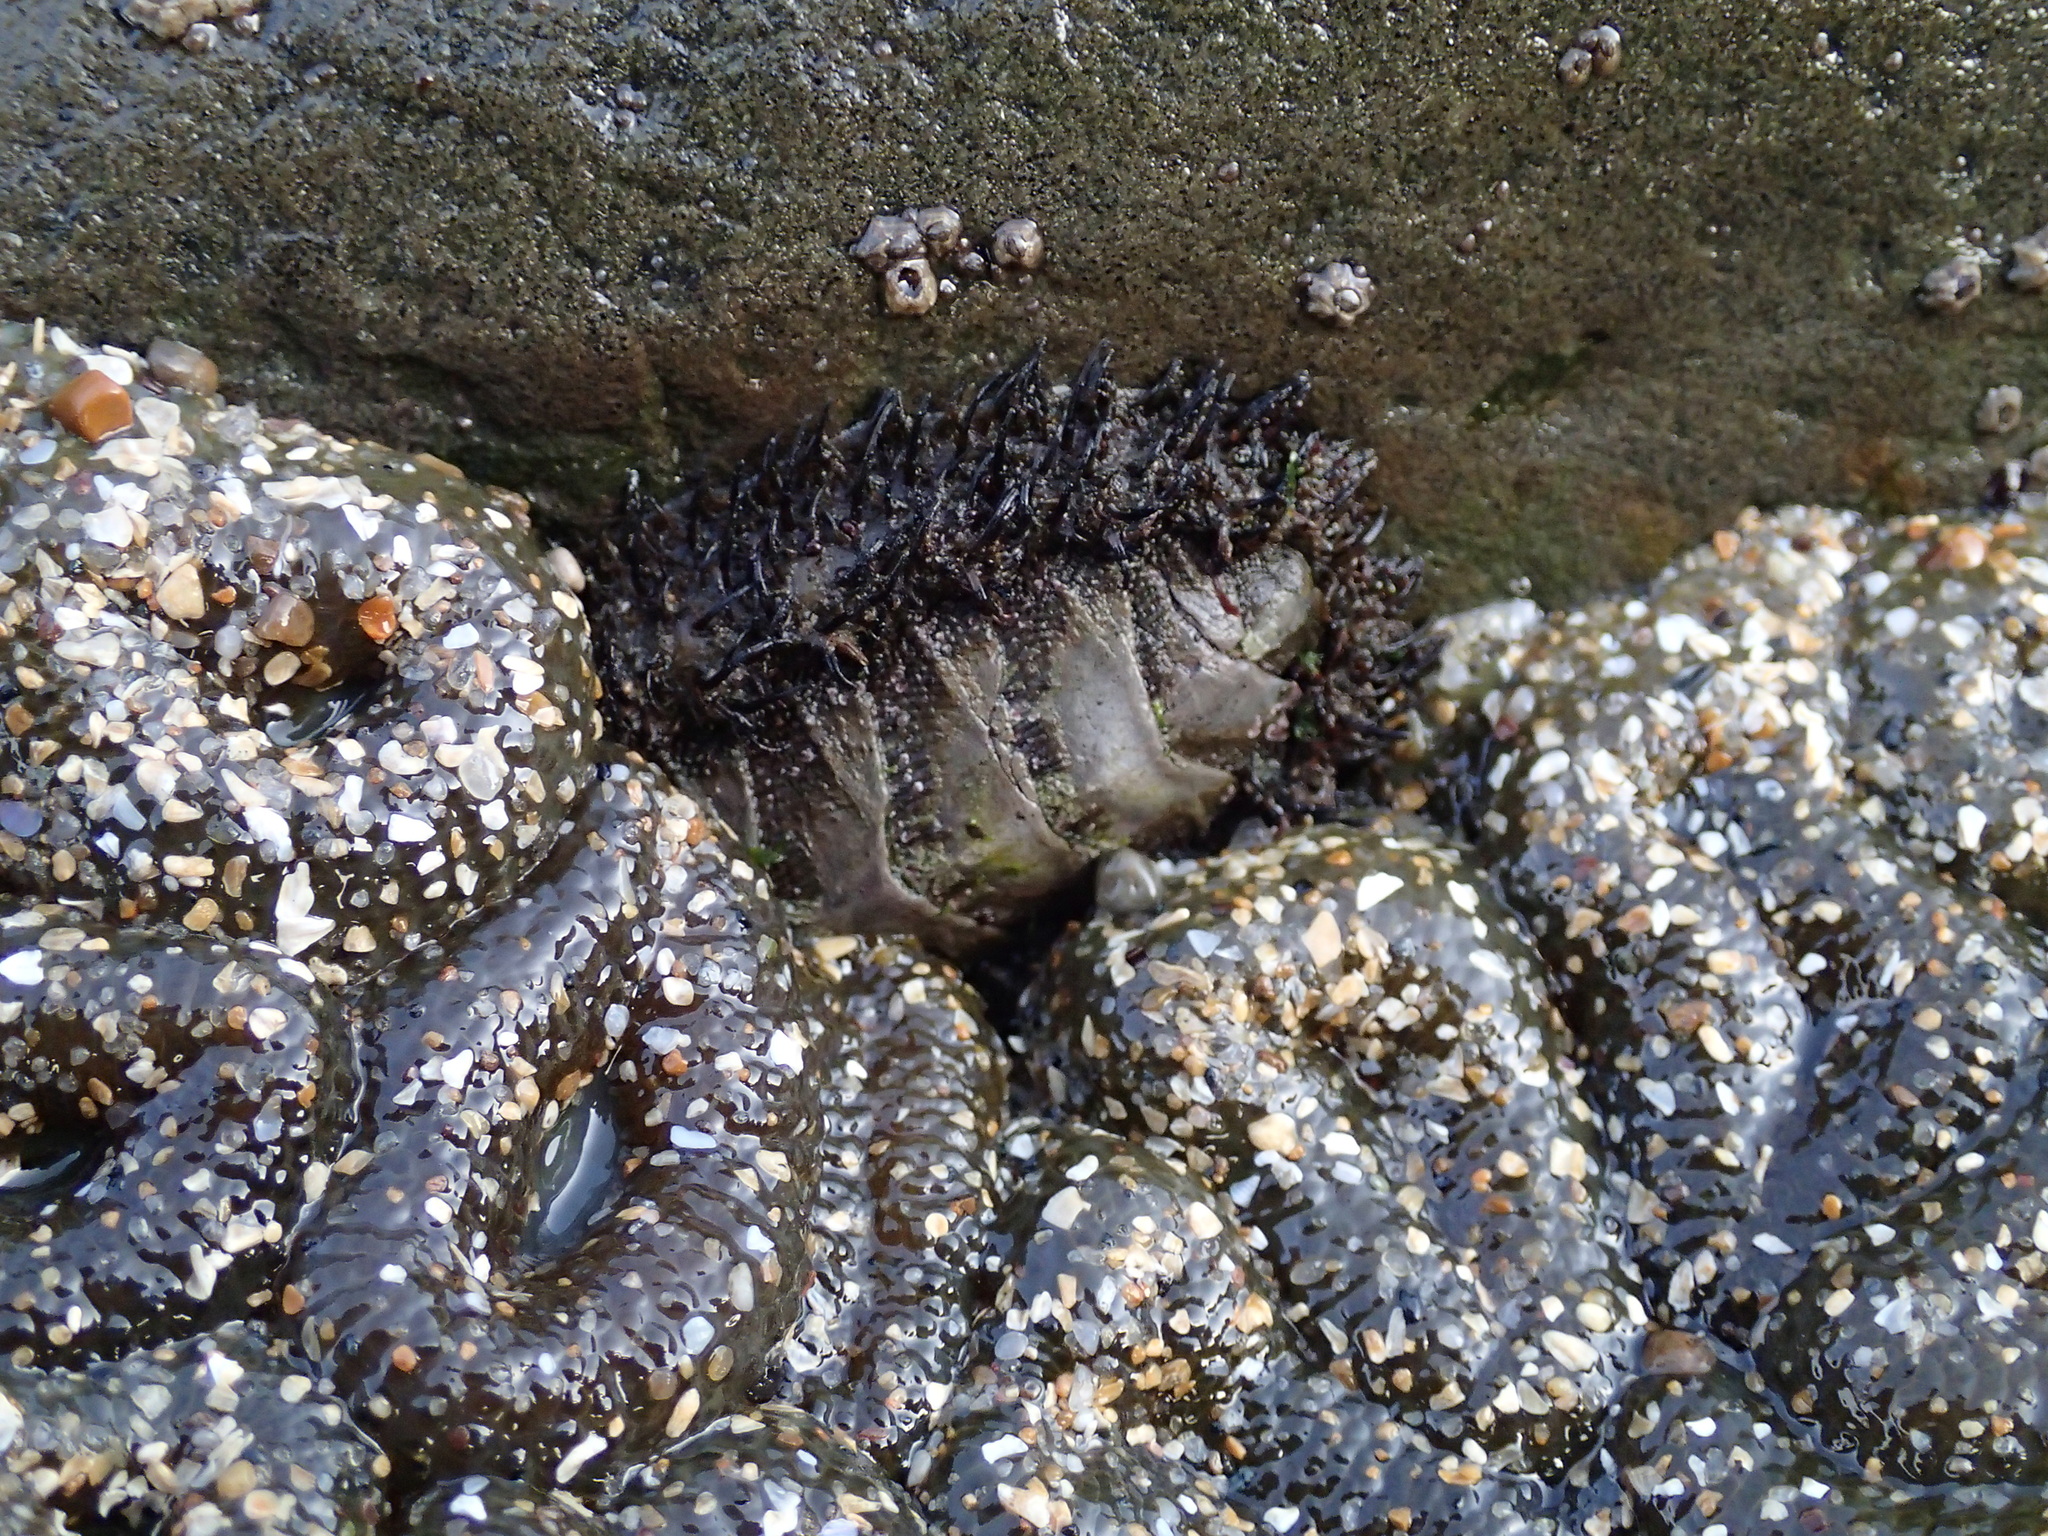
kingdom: Animalia
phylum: Mollusca
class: Polyplacophora
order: Chitonida
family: Mopaliidae
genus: Mopalia
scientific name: Mopalia muscosa
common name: Mossy chiton
